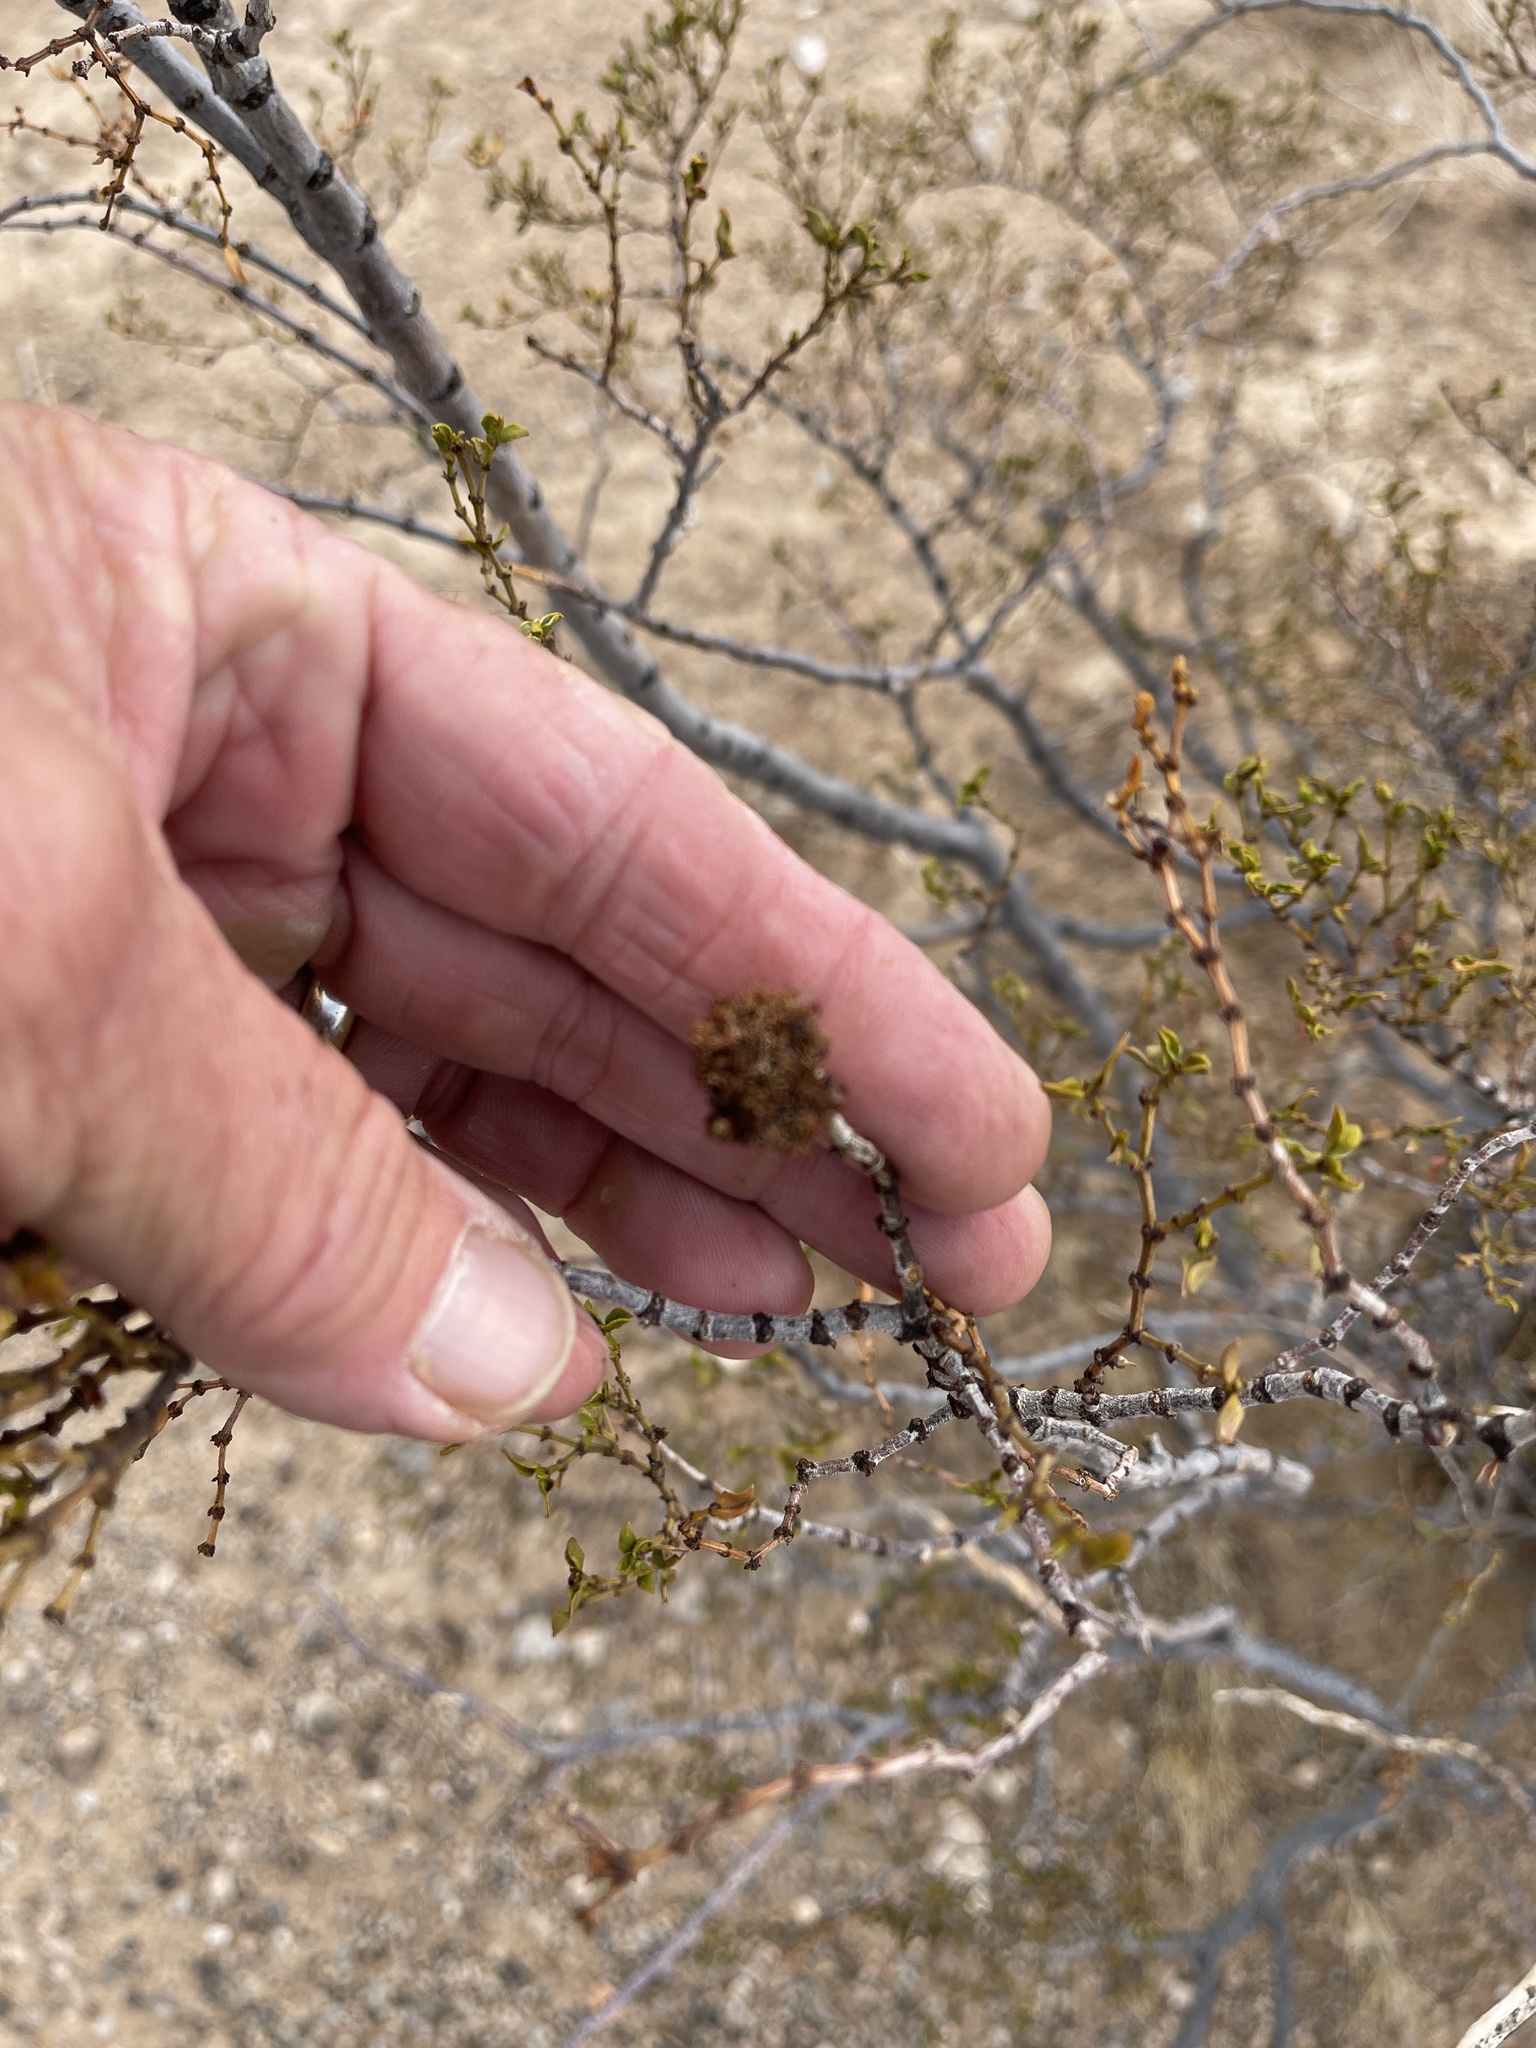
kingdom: Animalia
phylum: Arthropoda
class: Insecta
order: Diptera
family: Cecidomyiidae
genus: Asphondylia
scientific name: Asphondylia auripila
